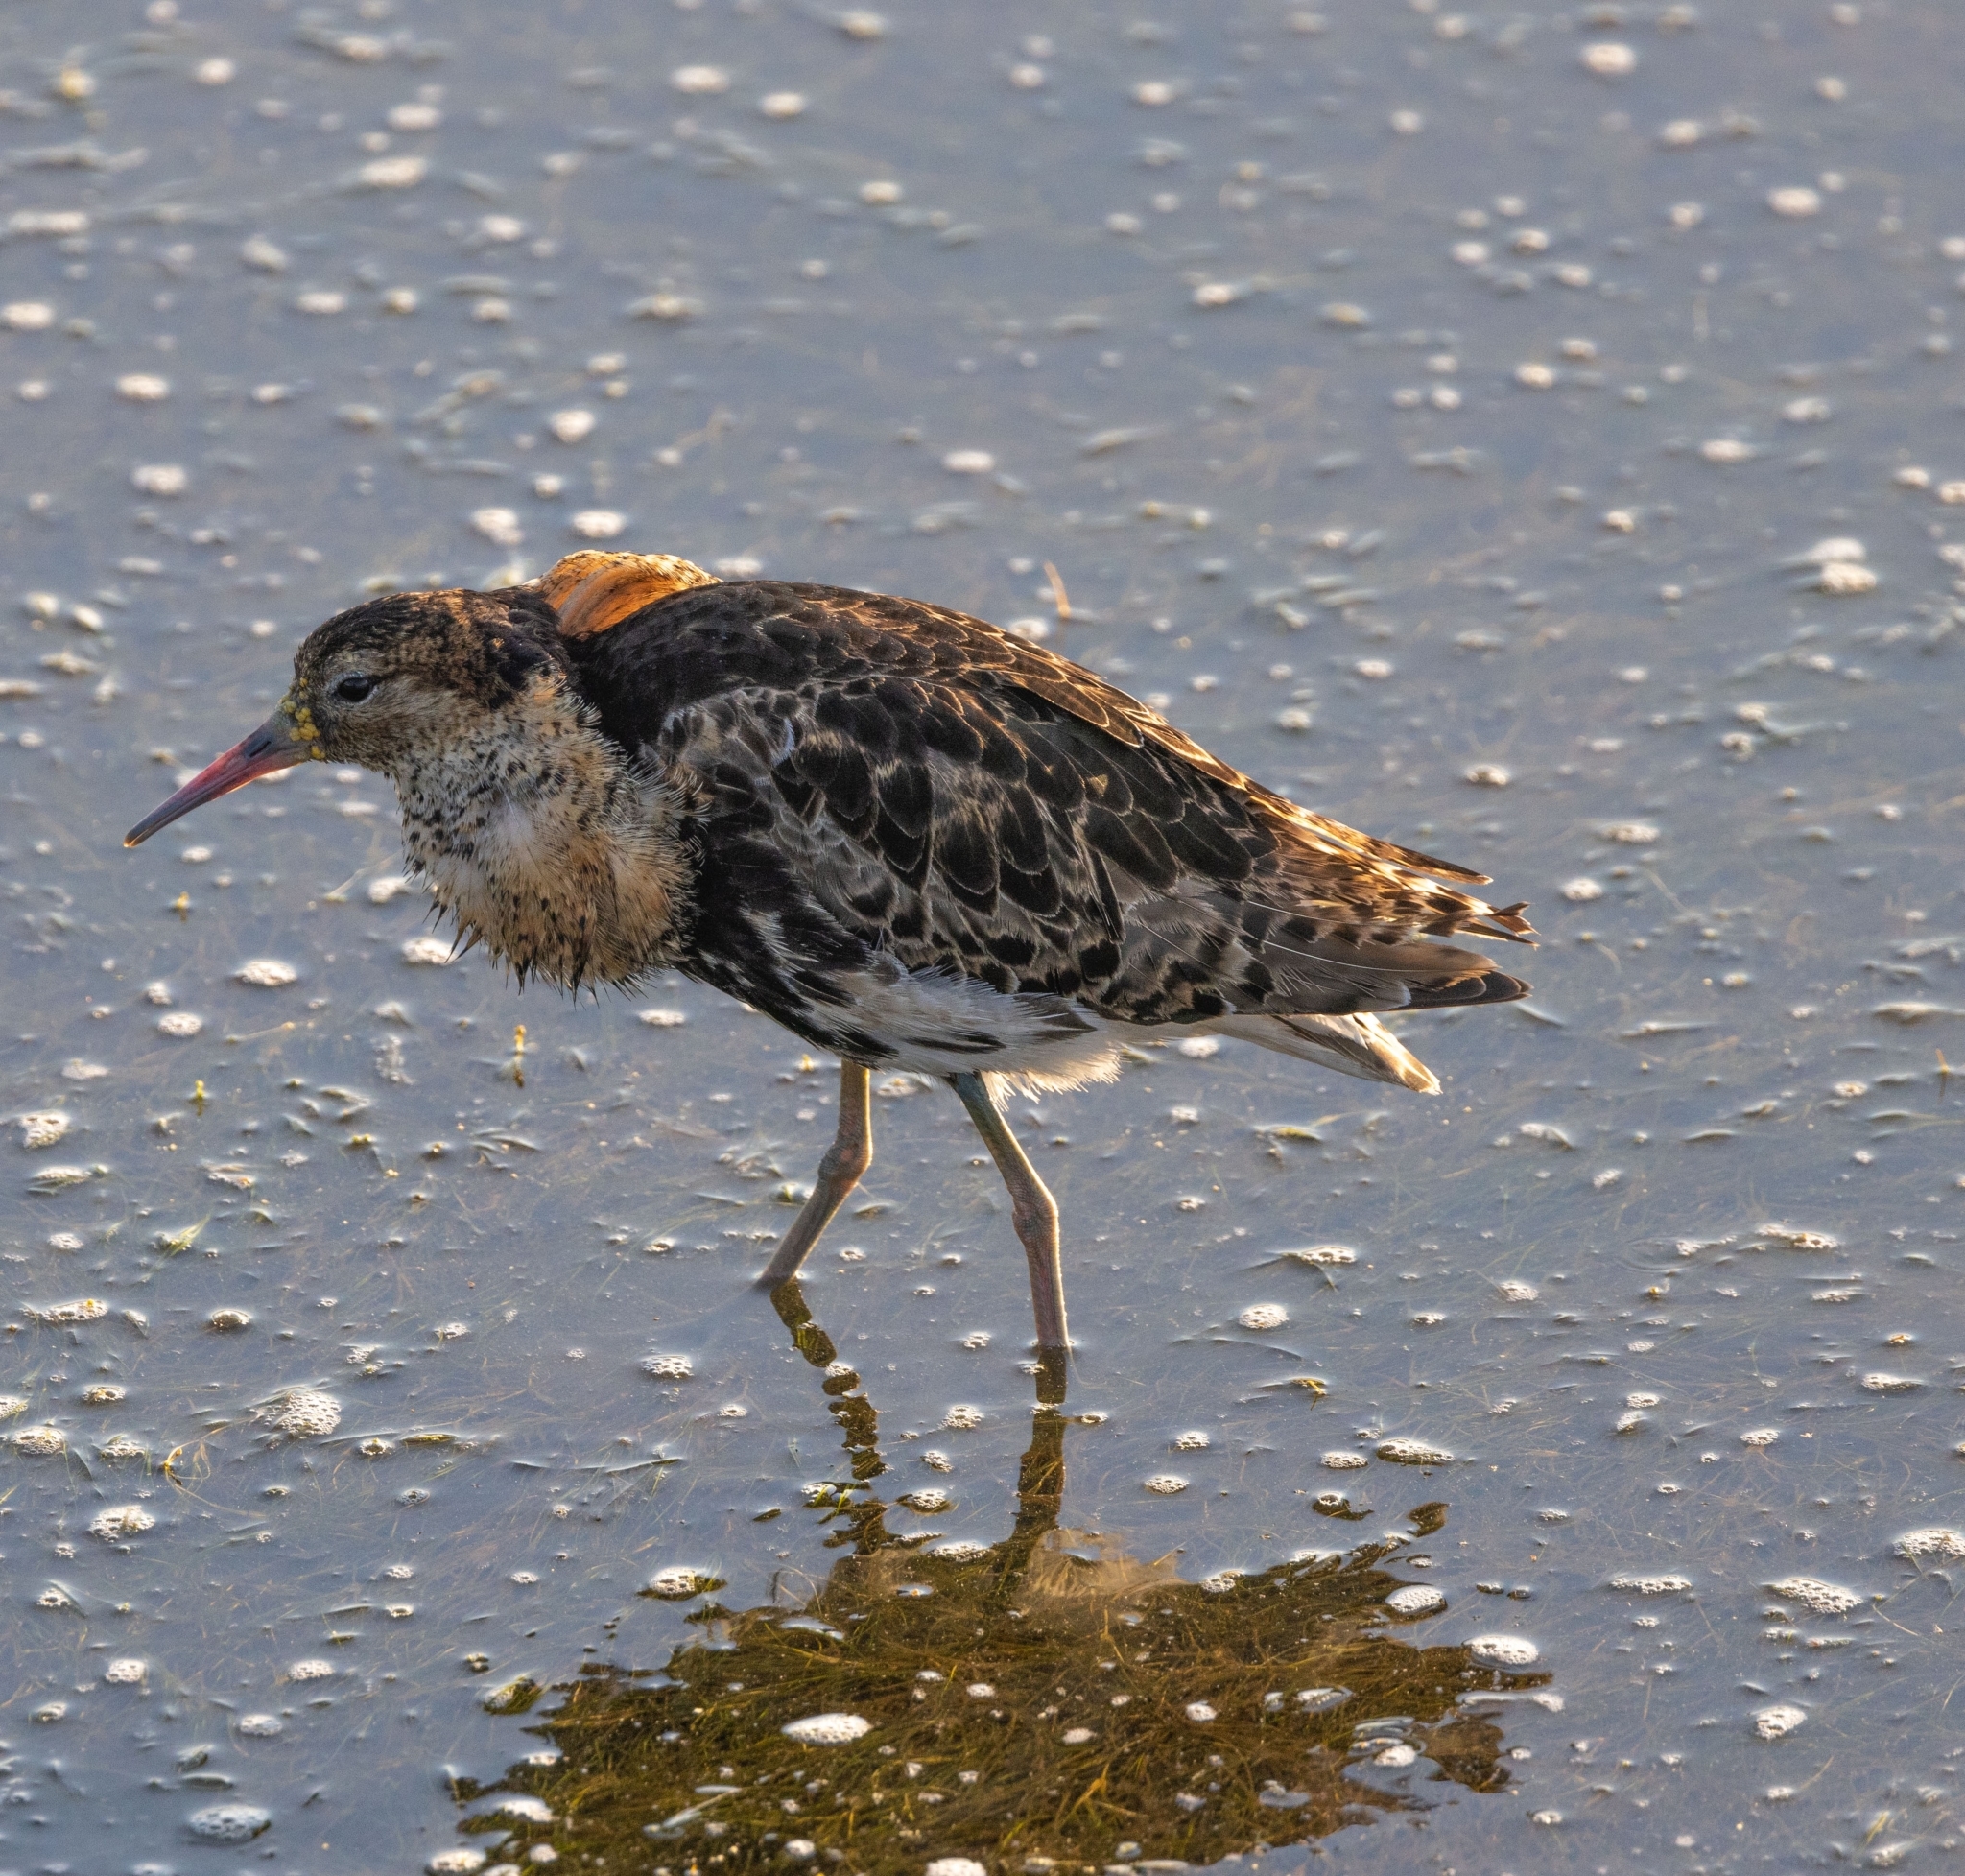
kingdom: Animalia
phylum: Chordata
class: Aves
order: Charadriiformes
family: Scolopacidae
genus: Calidris
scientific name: Calidris pugnax
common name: Ruff
